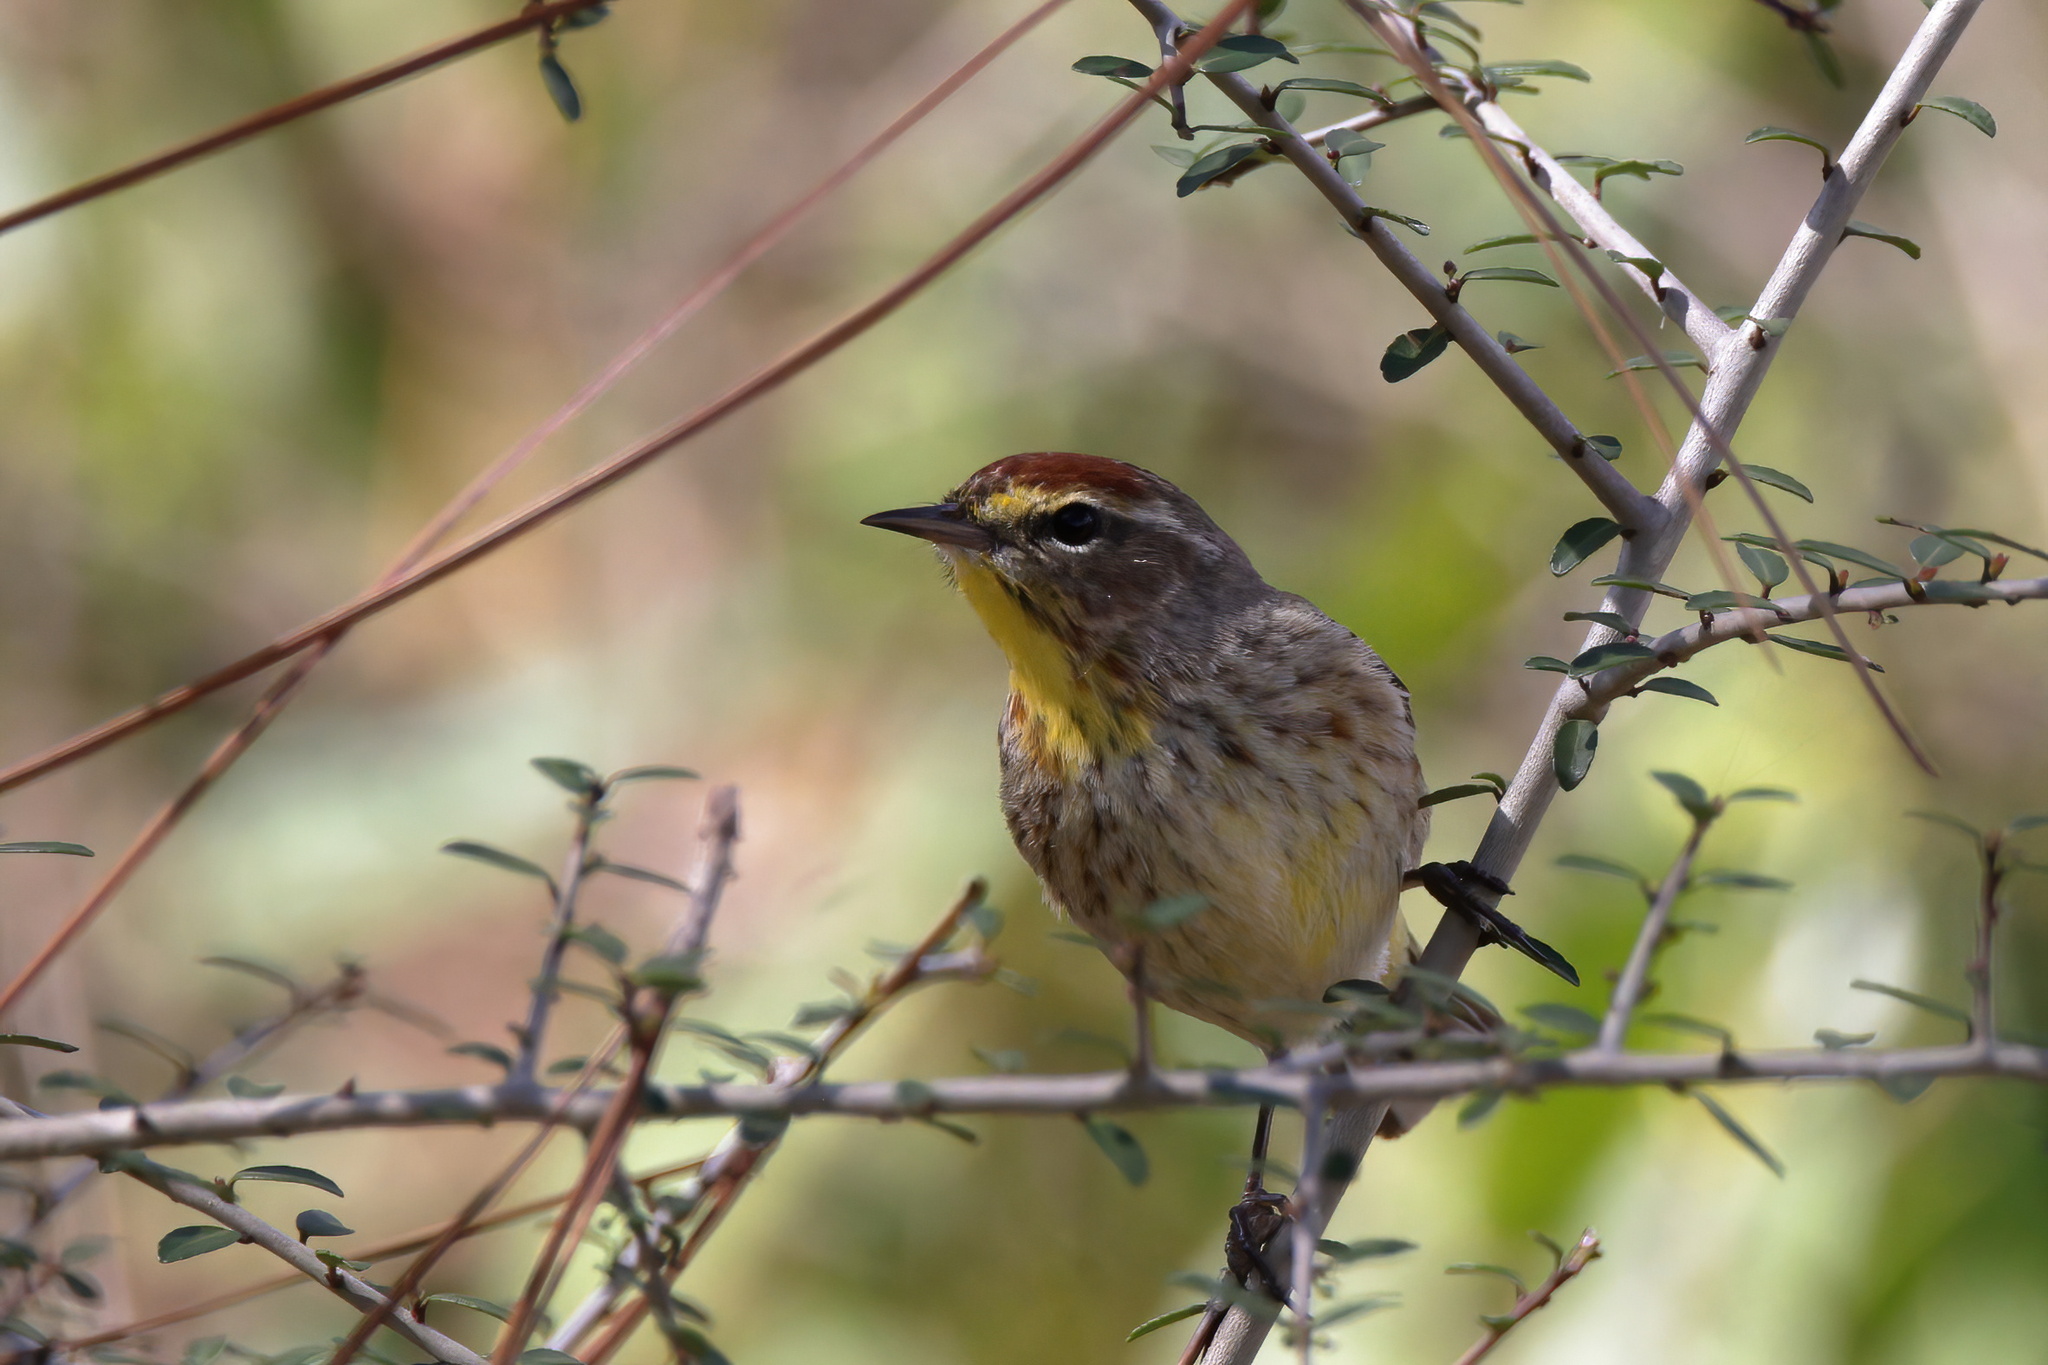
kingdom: Animalia
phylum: Chordata
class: Aves
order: Passeriformes
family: Parulidae
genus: Setophaga
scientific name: Setophaga palmarum
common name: Palm warbler
